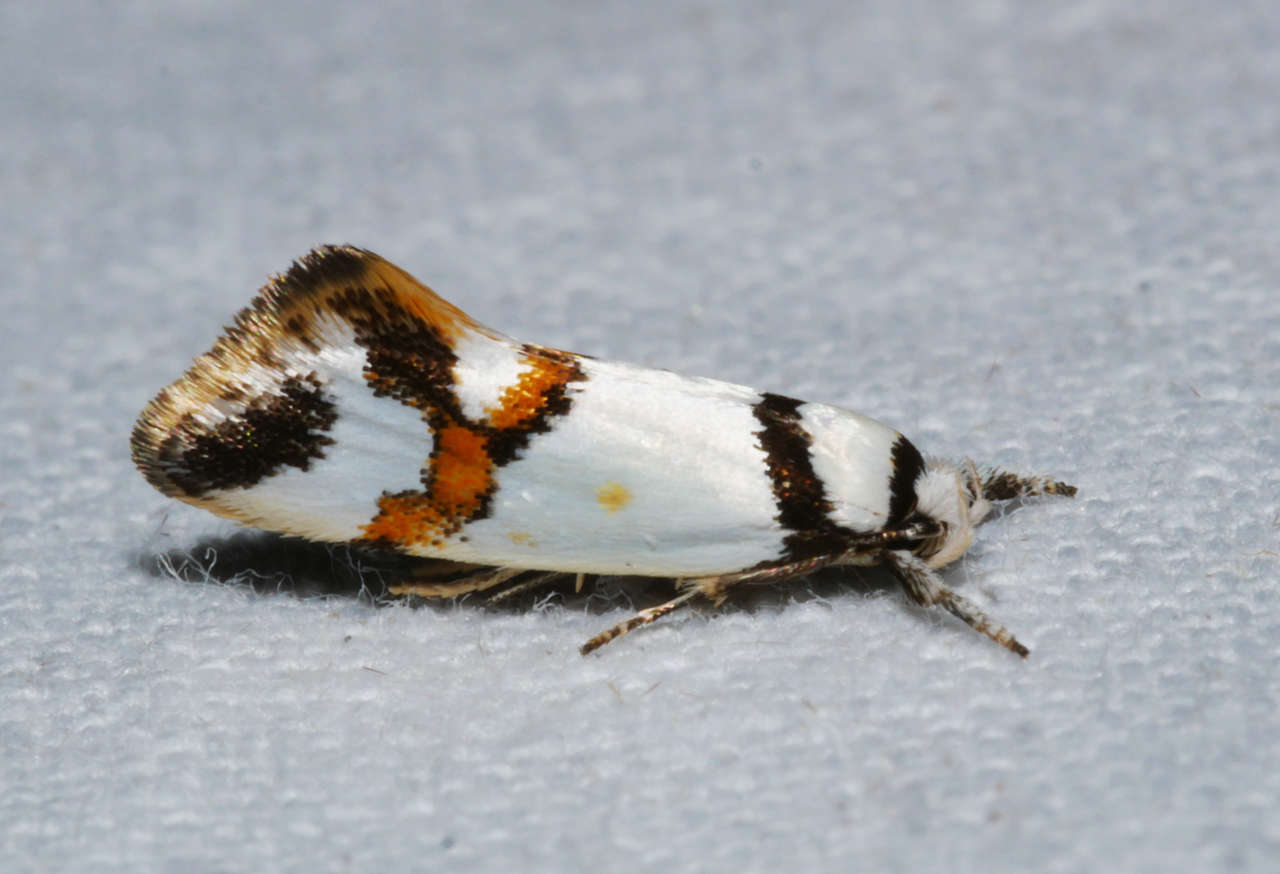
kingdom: Animalia
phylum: Arthropoda
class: Insecta
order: Lepidoptera
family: Oecophoridae
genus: Lepidotarsa
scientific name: Lepidotarsa habrodelta
